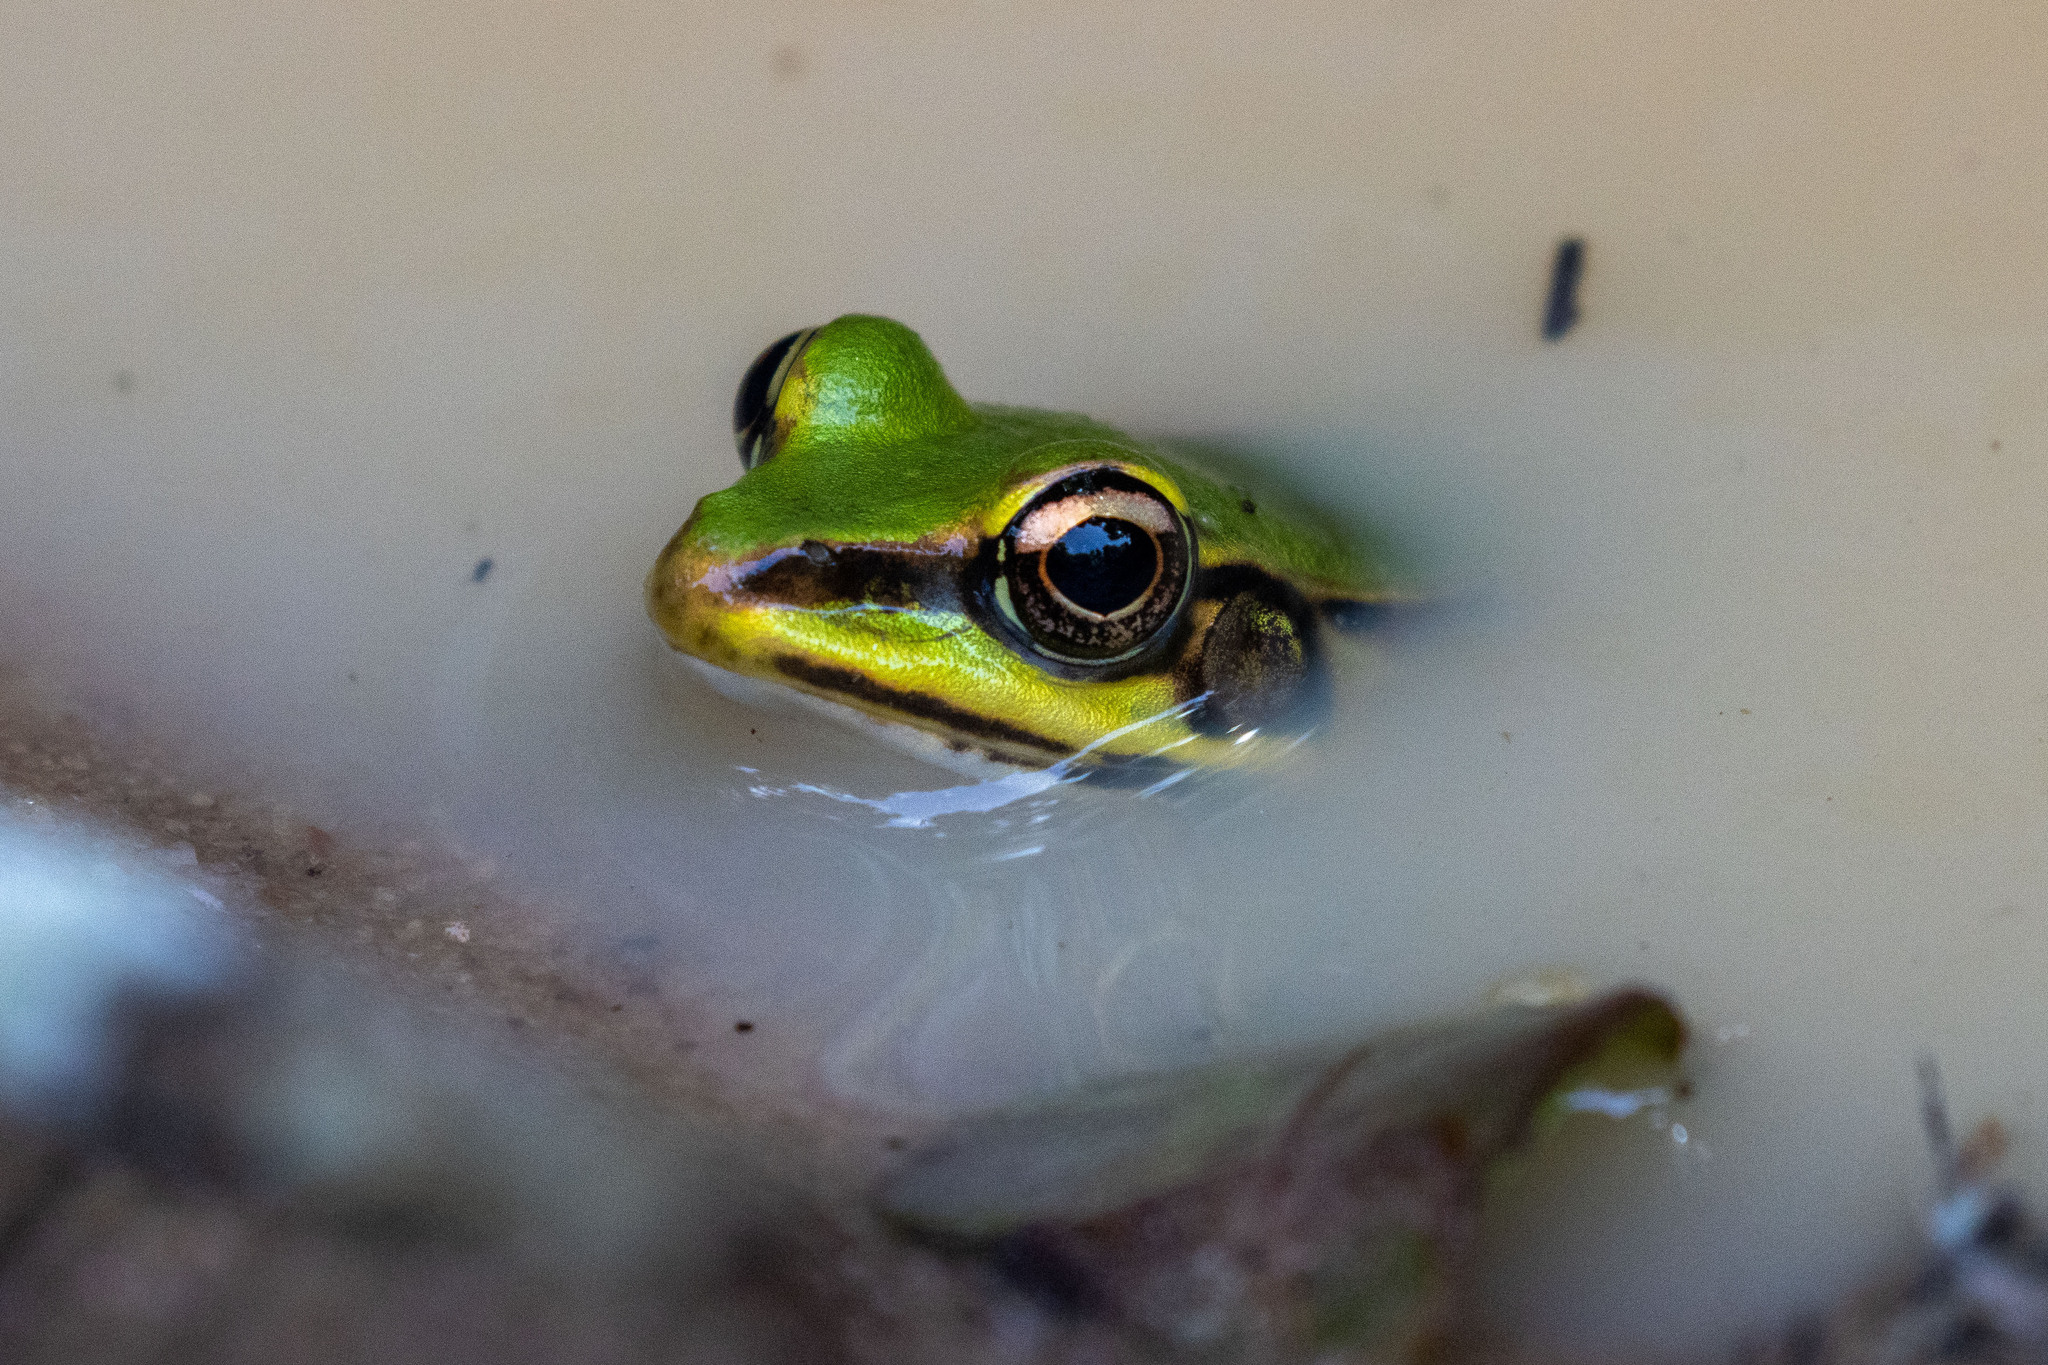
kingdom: Animalia
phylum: Chordata
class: Amphibia
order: Anura
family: Ranidae
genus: Lithobates
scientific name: Lithobates palmipes
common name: Amazon river frog
